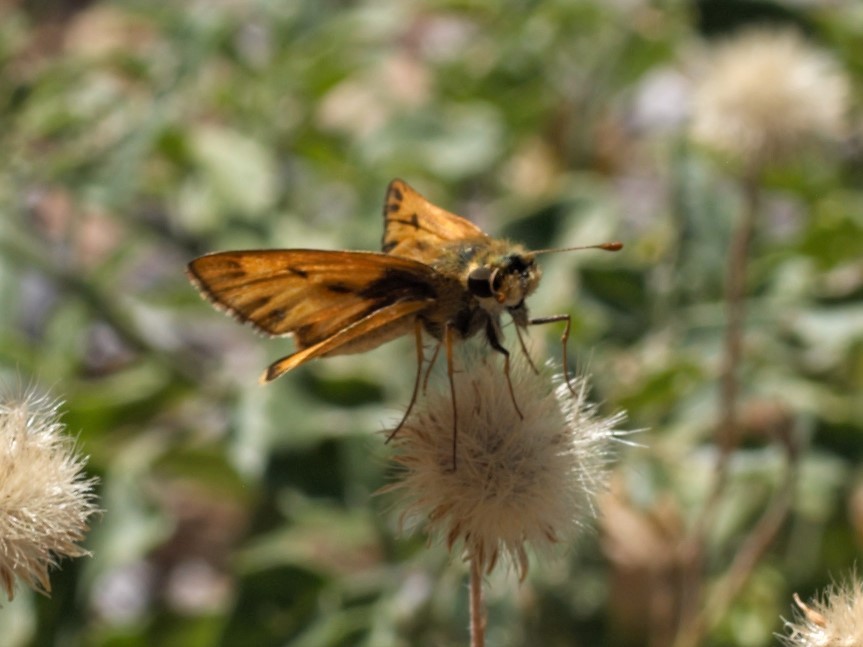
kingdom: Animalia
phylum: Arthropoda
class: Insecta
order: Lepidoptera
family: Hesperiidae
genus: Hylephila
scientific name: Hylephila phyleus
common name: Fiery skipper
